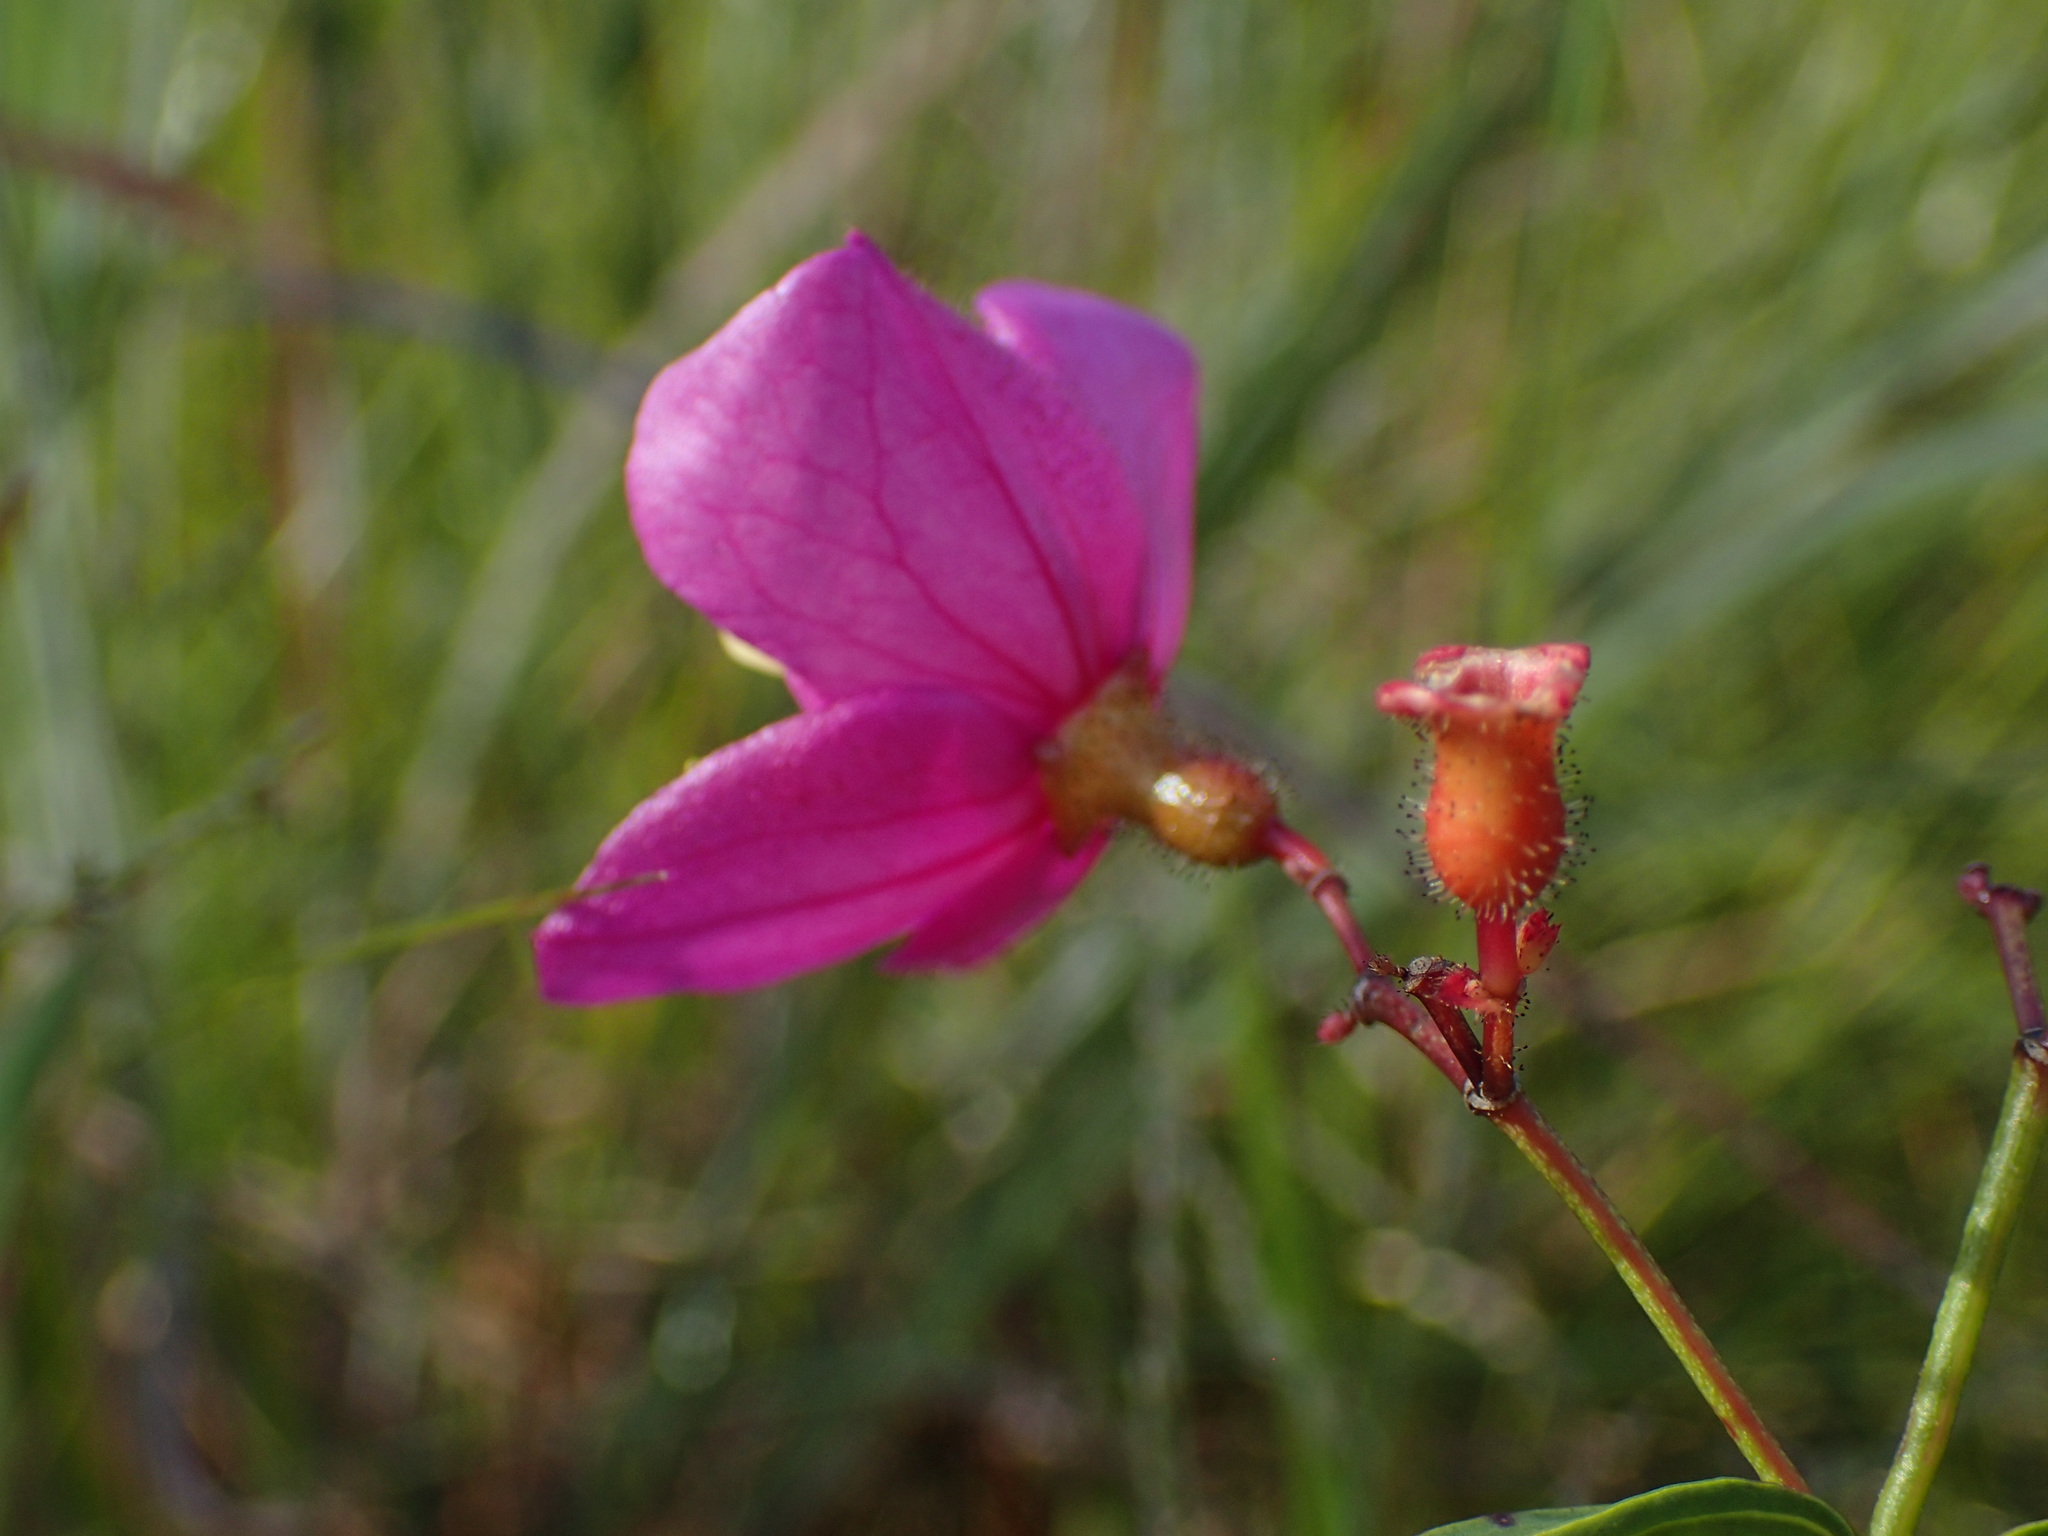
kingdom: Plantae
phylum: Tracheophyta
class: Magnoliopsida
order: Myrtales
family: Melastomataceae
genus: Rhexia
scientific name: Rhexia alifanus
